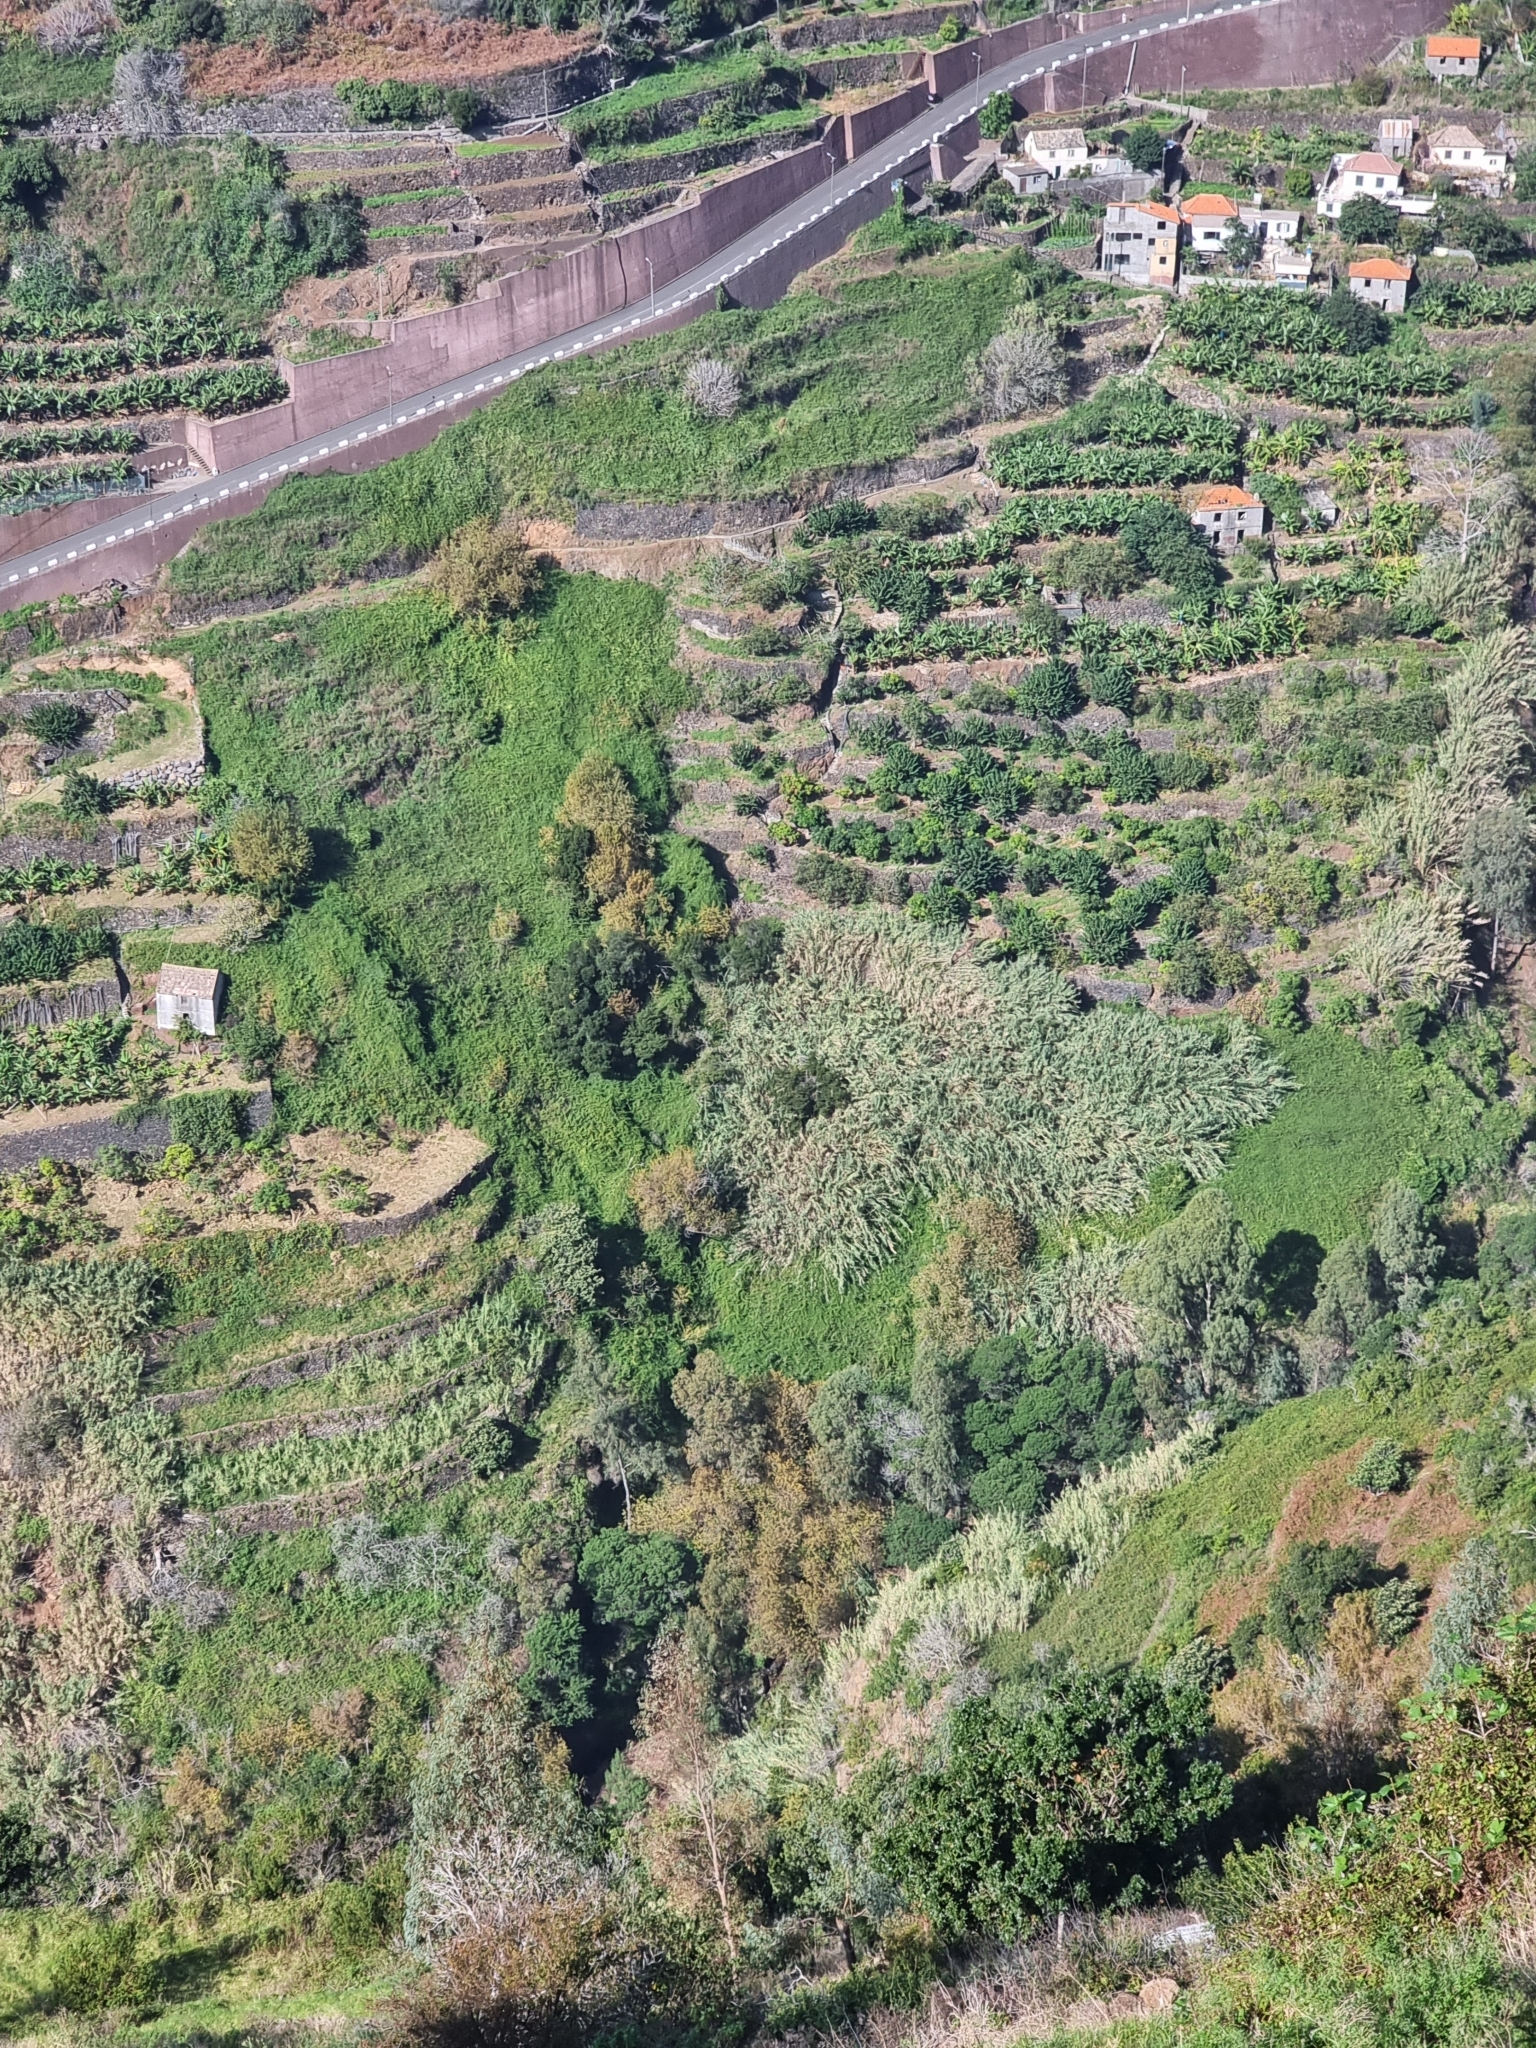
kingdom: Plantae
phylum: Tracheophyta
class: Liliopsida
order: Poales
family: Poaceae
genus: Arundo
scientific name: Arundo donax
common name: Giant reed
